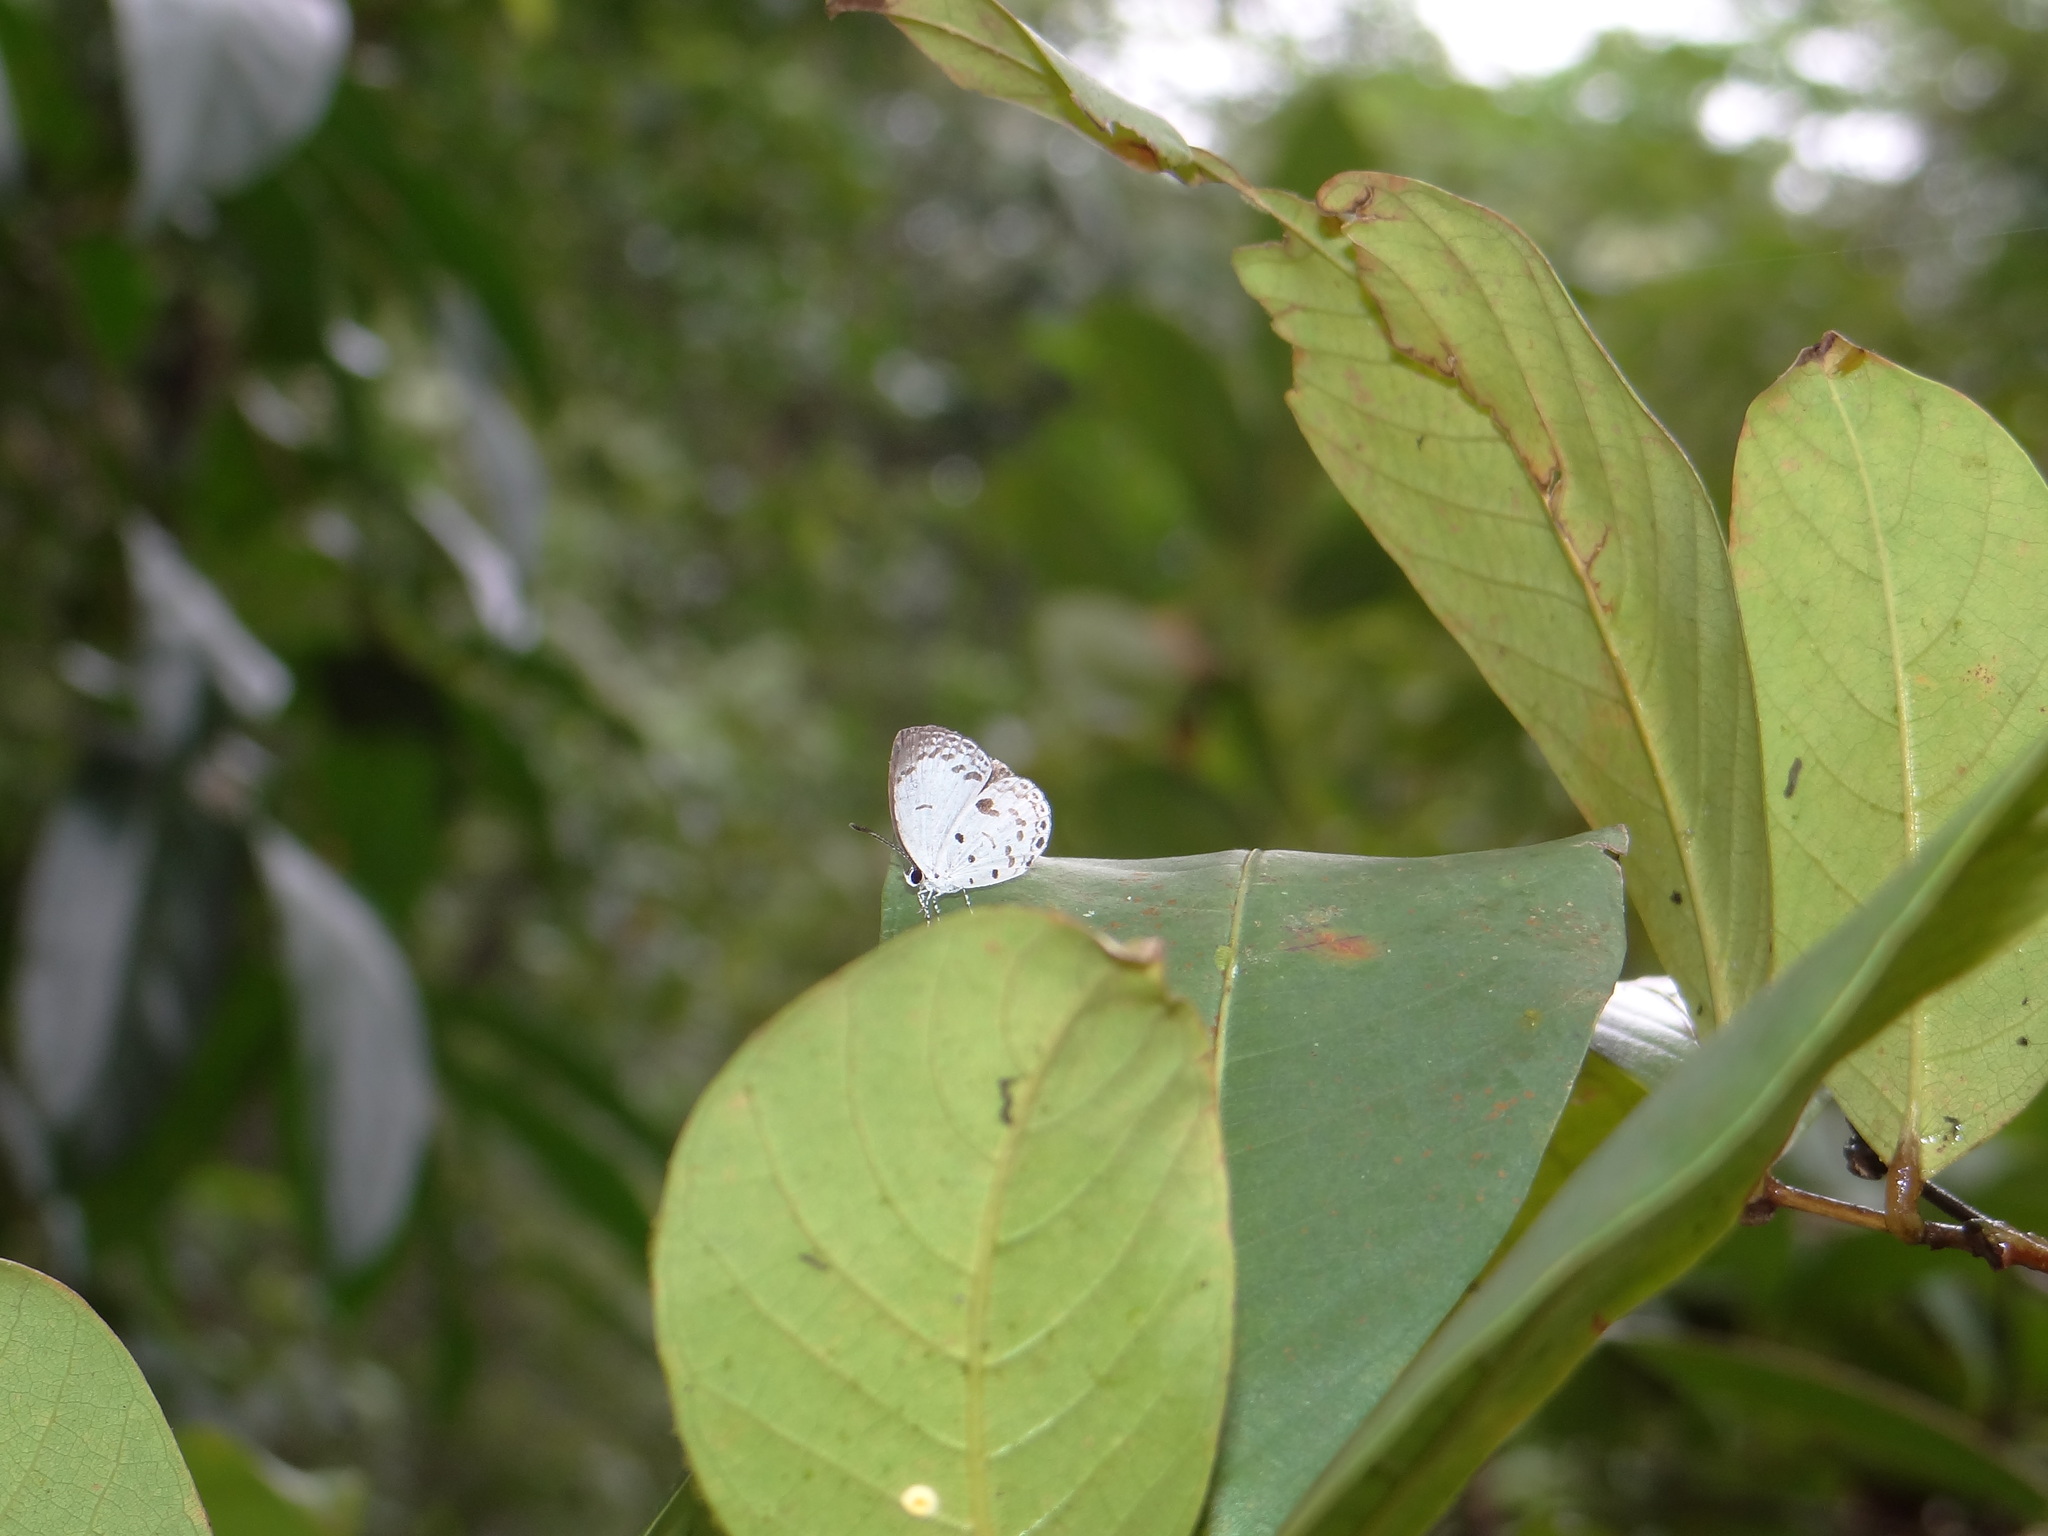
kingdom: Animalia
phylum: Arthropoda
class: Insecta
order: Lepidoptera
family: Lycaenidae
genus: Neopithecops
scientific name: Neopithecops zalmora
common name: Quaker
